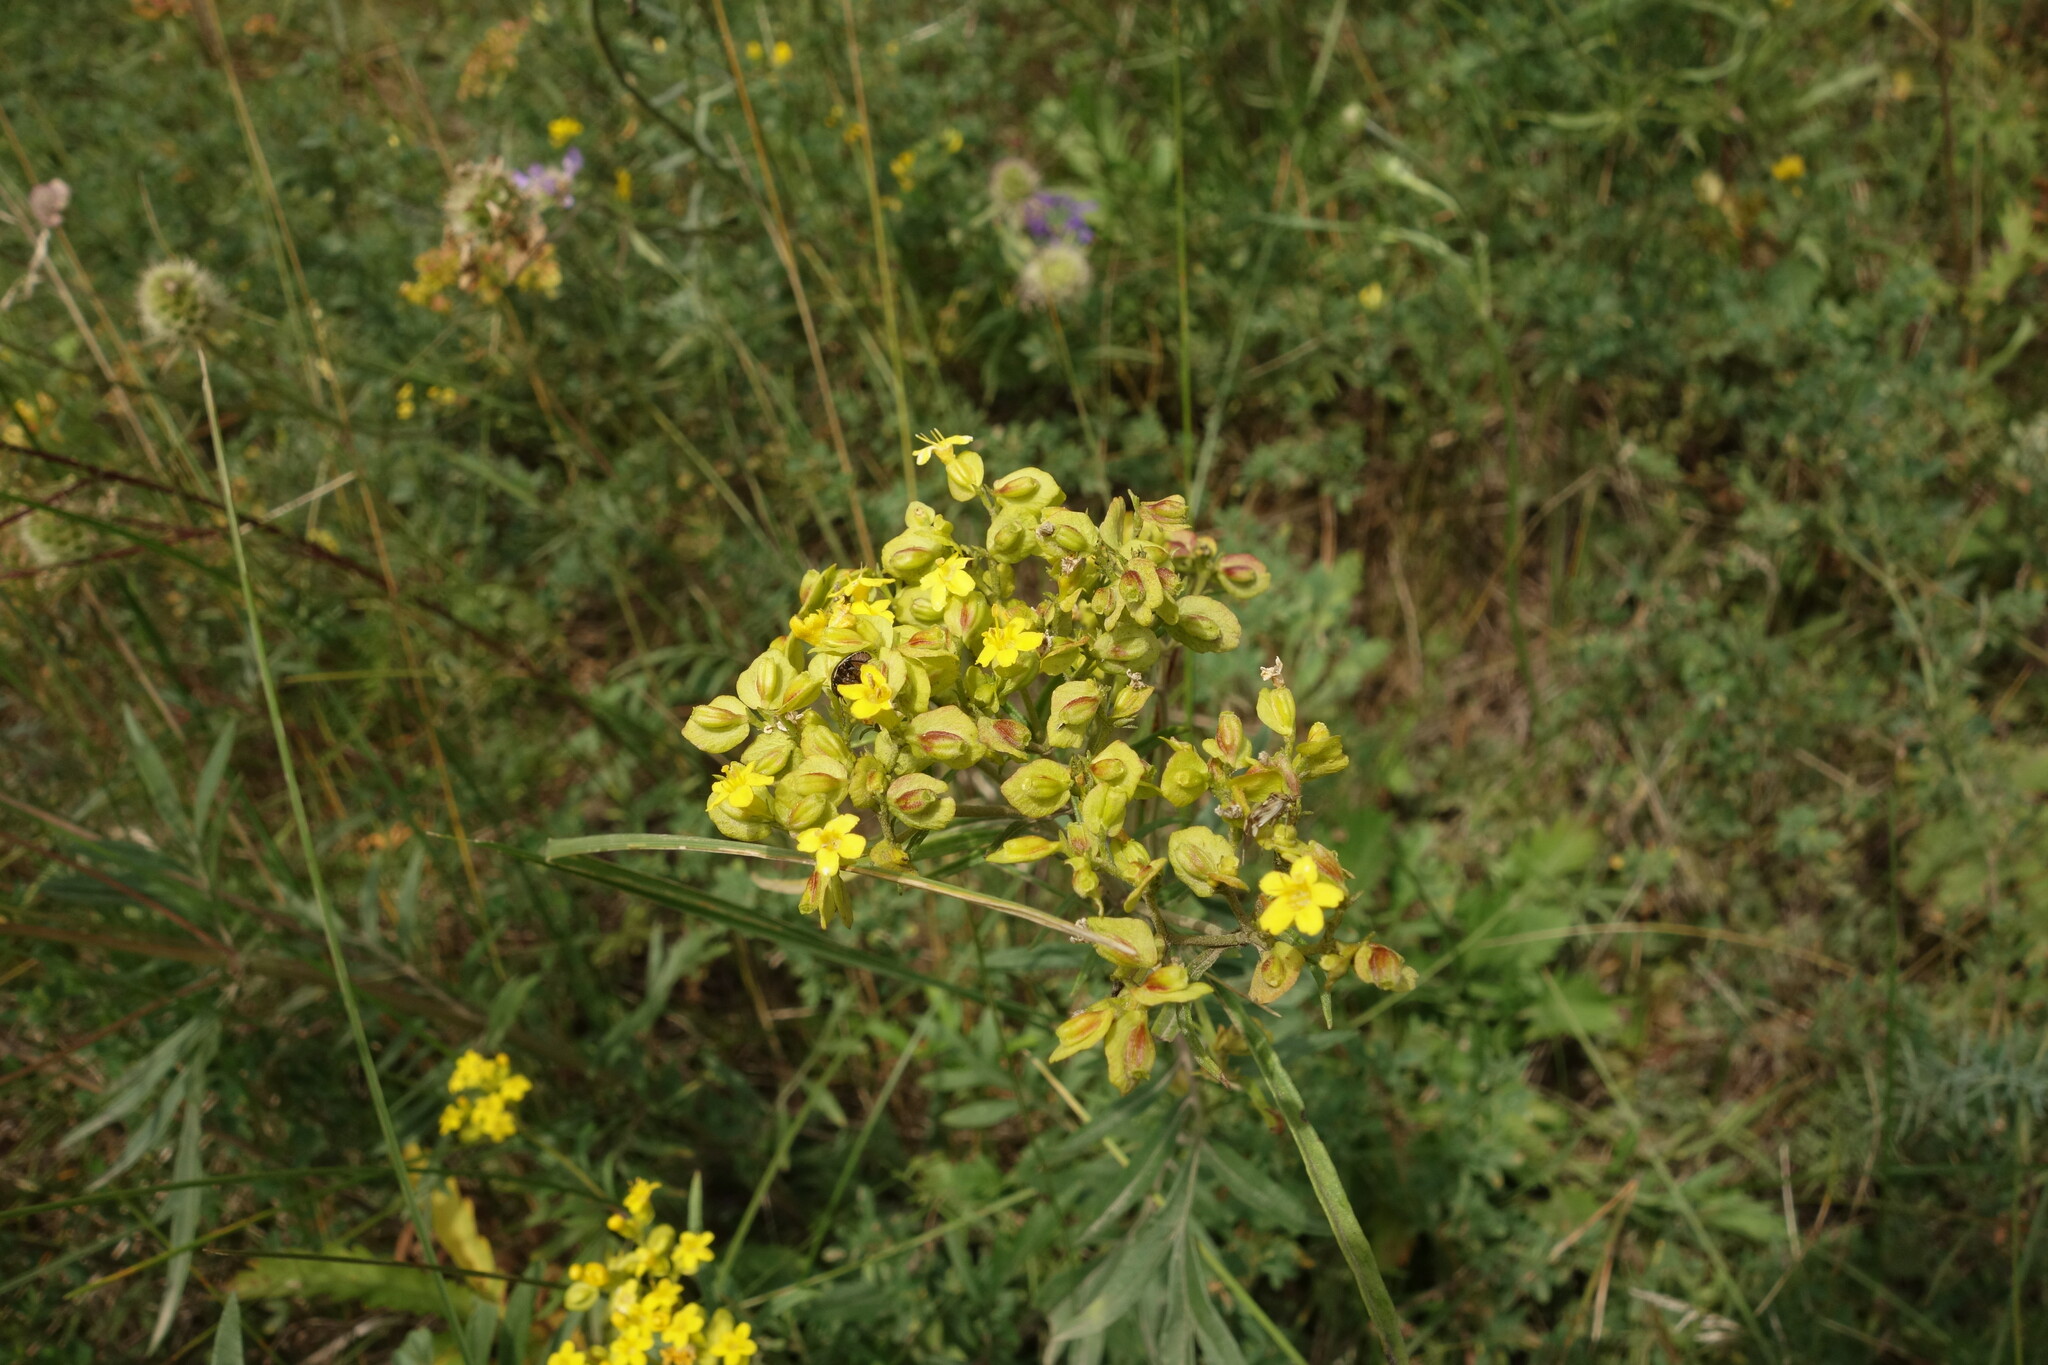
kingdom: Plantae
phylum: Tracheophyta
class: Magnoliopsida
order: Dipsacales
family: Caprifoliaceae
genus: Patrinia
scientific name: Patrinia rupestris
